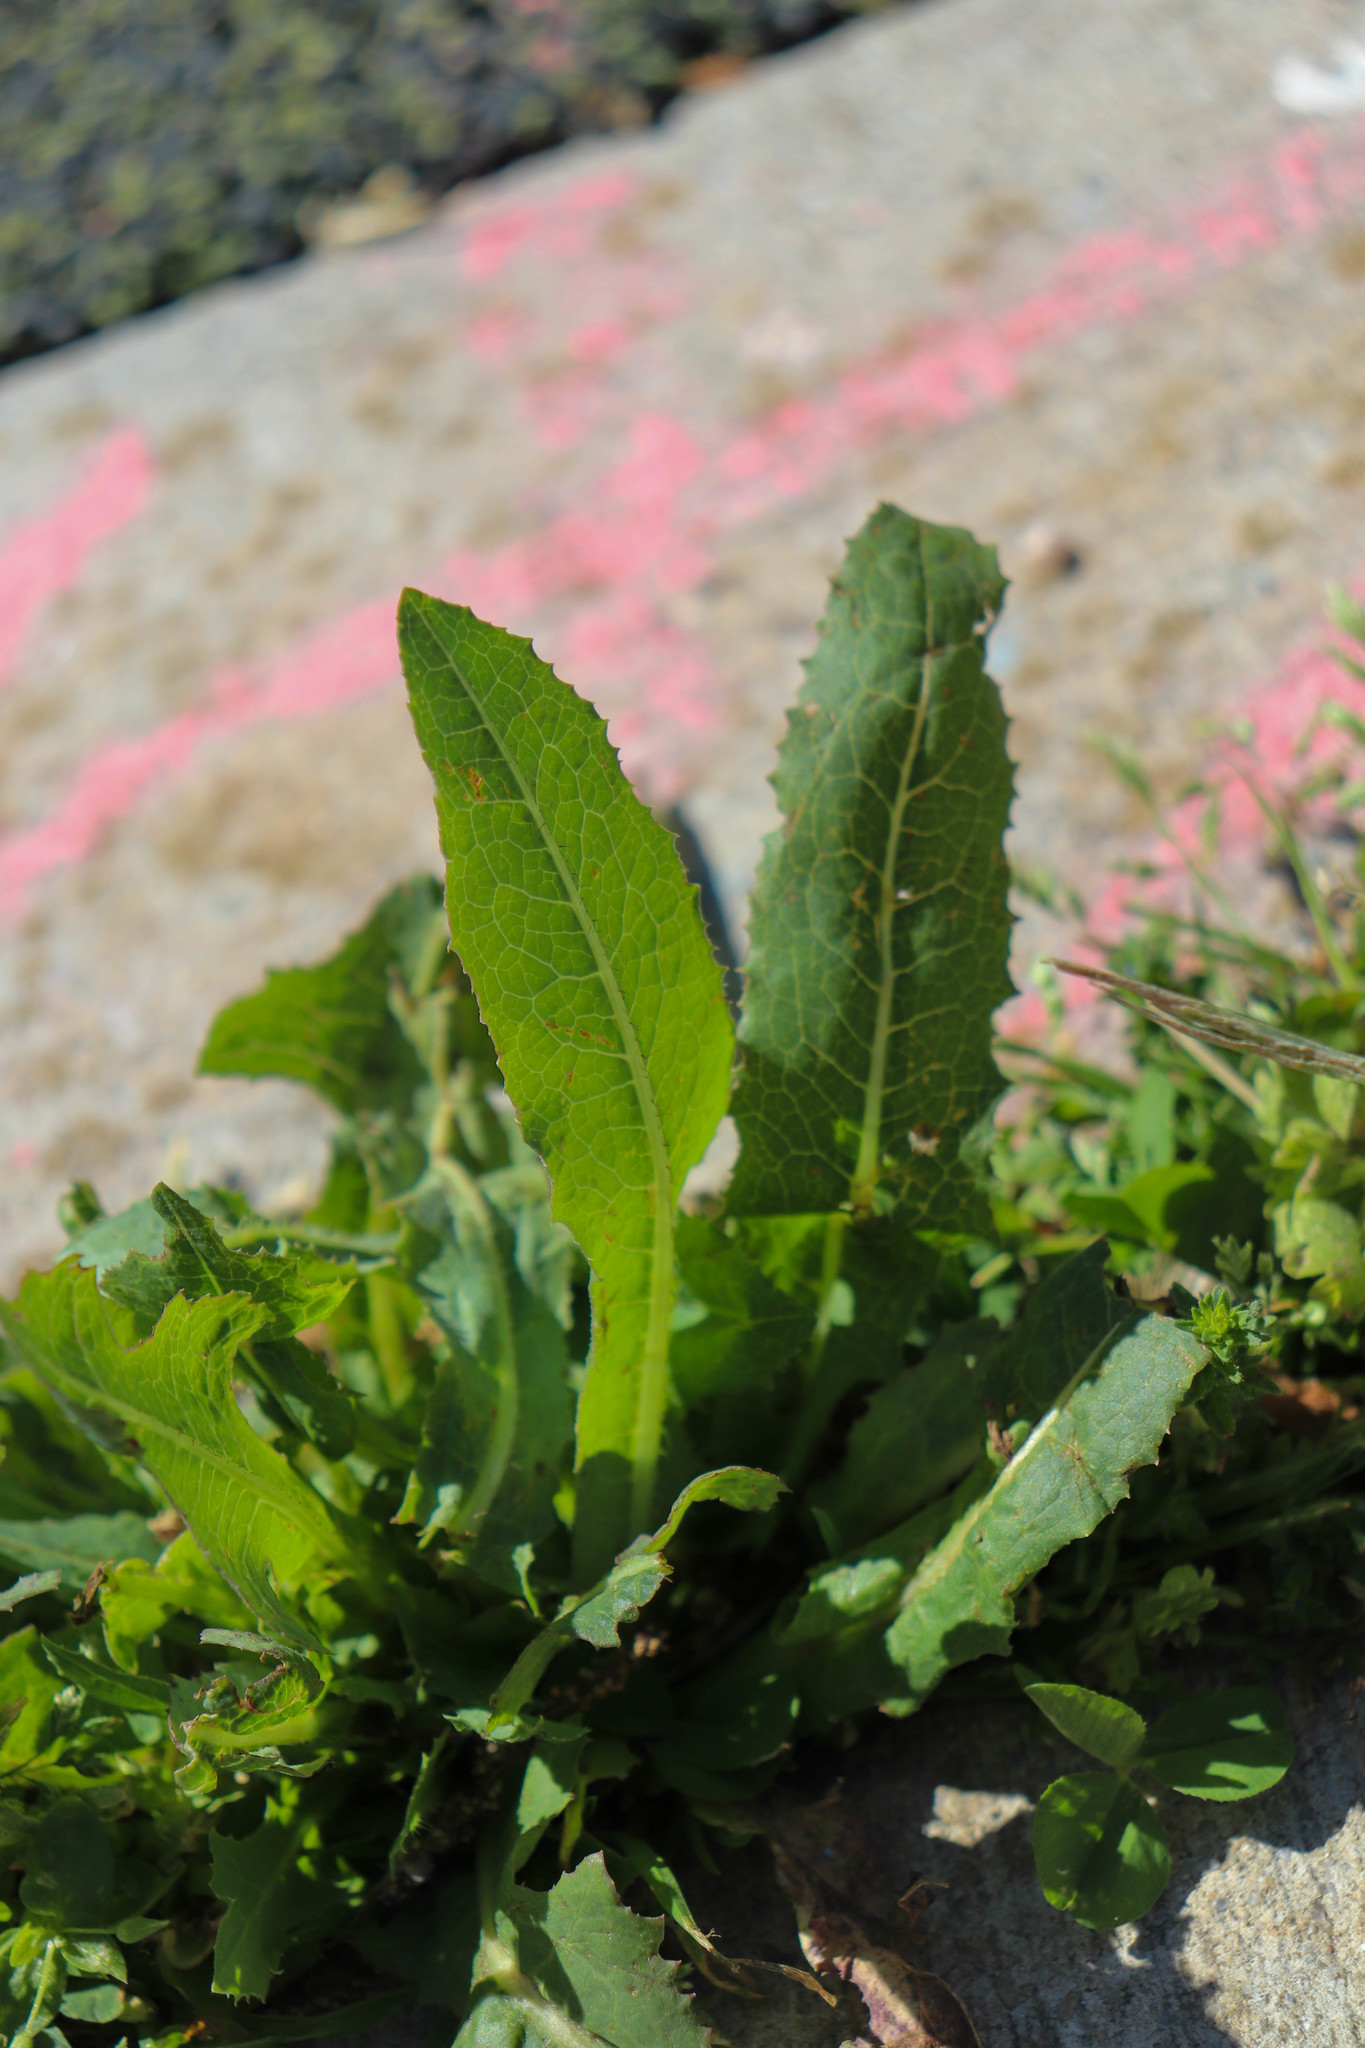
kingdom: Plantae
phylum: Tracheophyta
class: Magnoliopsida
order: Asterales
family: Asteraceae
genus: Lactuca
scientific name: Lactuca serriola
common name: Prickly lettuce
